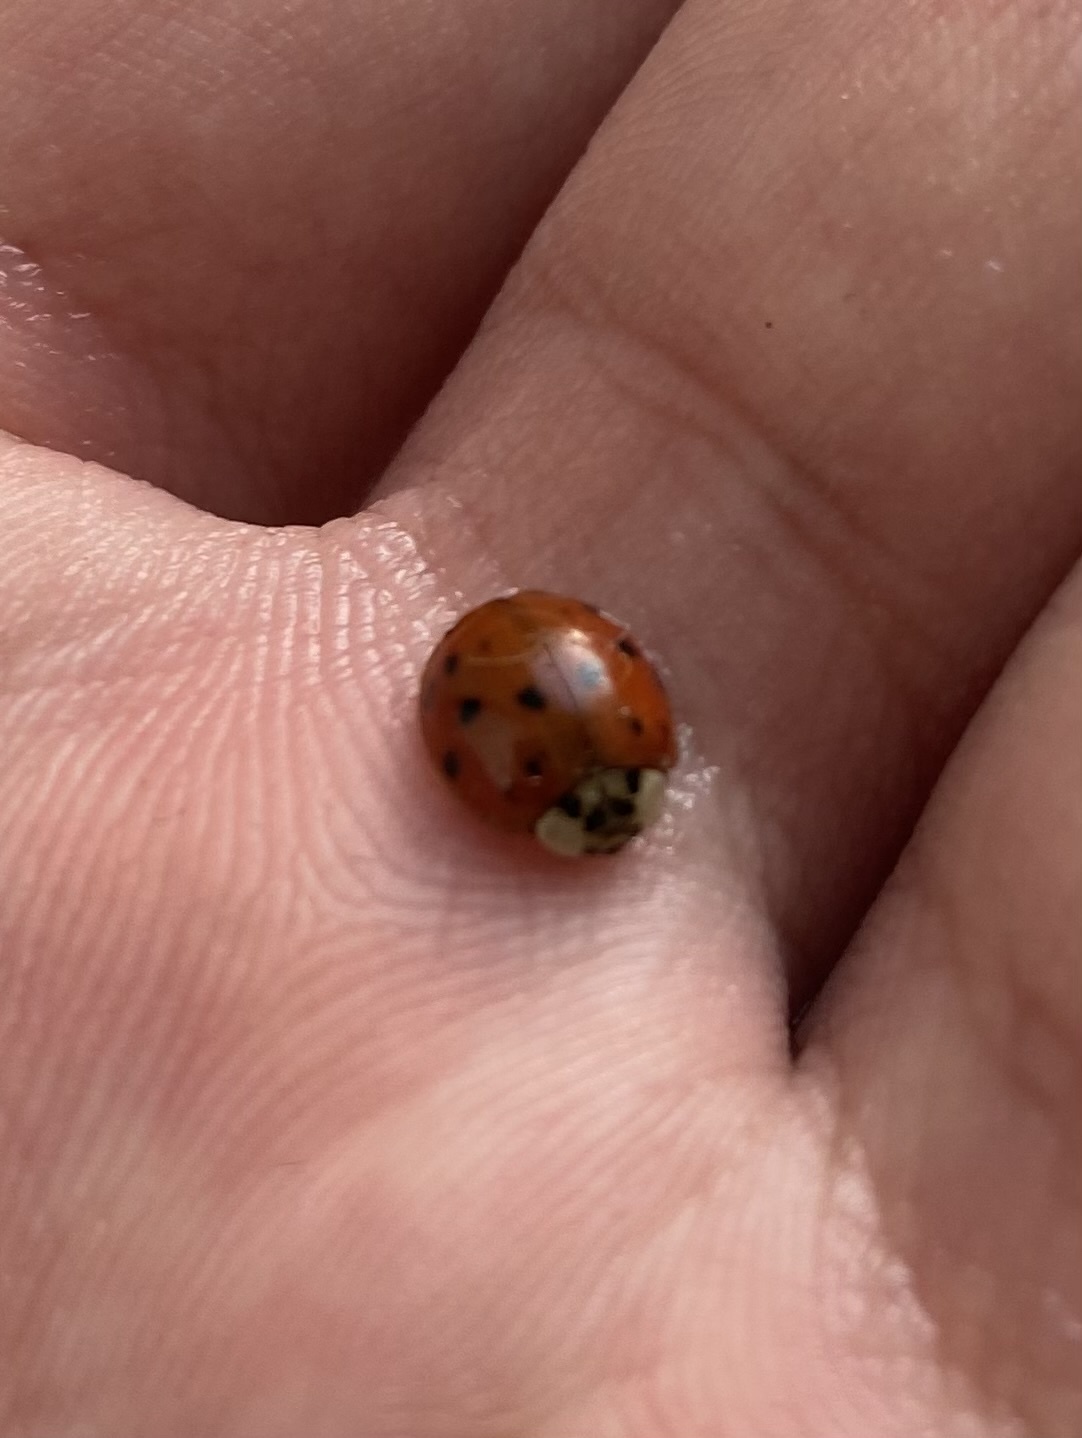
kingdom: Animalia
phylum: Arthropoda
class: Insecta
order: Coleoptera
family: Coccinellidae
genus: Harmonia
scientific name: Harmonia axyridis
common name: Harlequin ladybird
